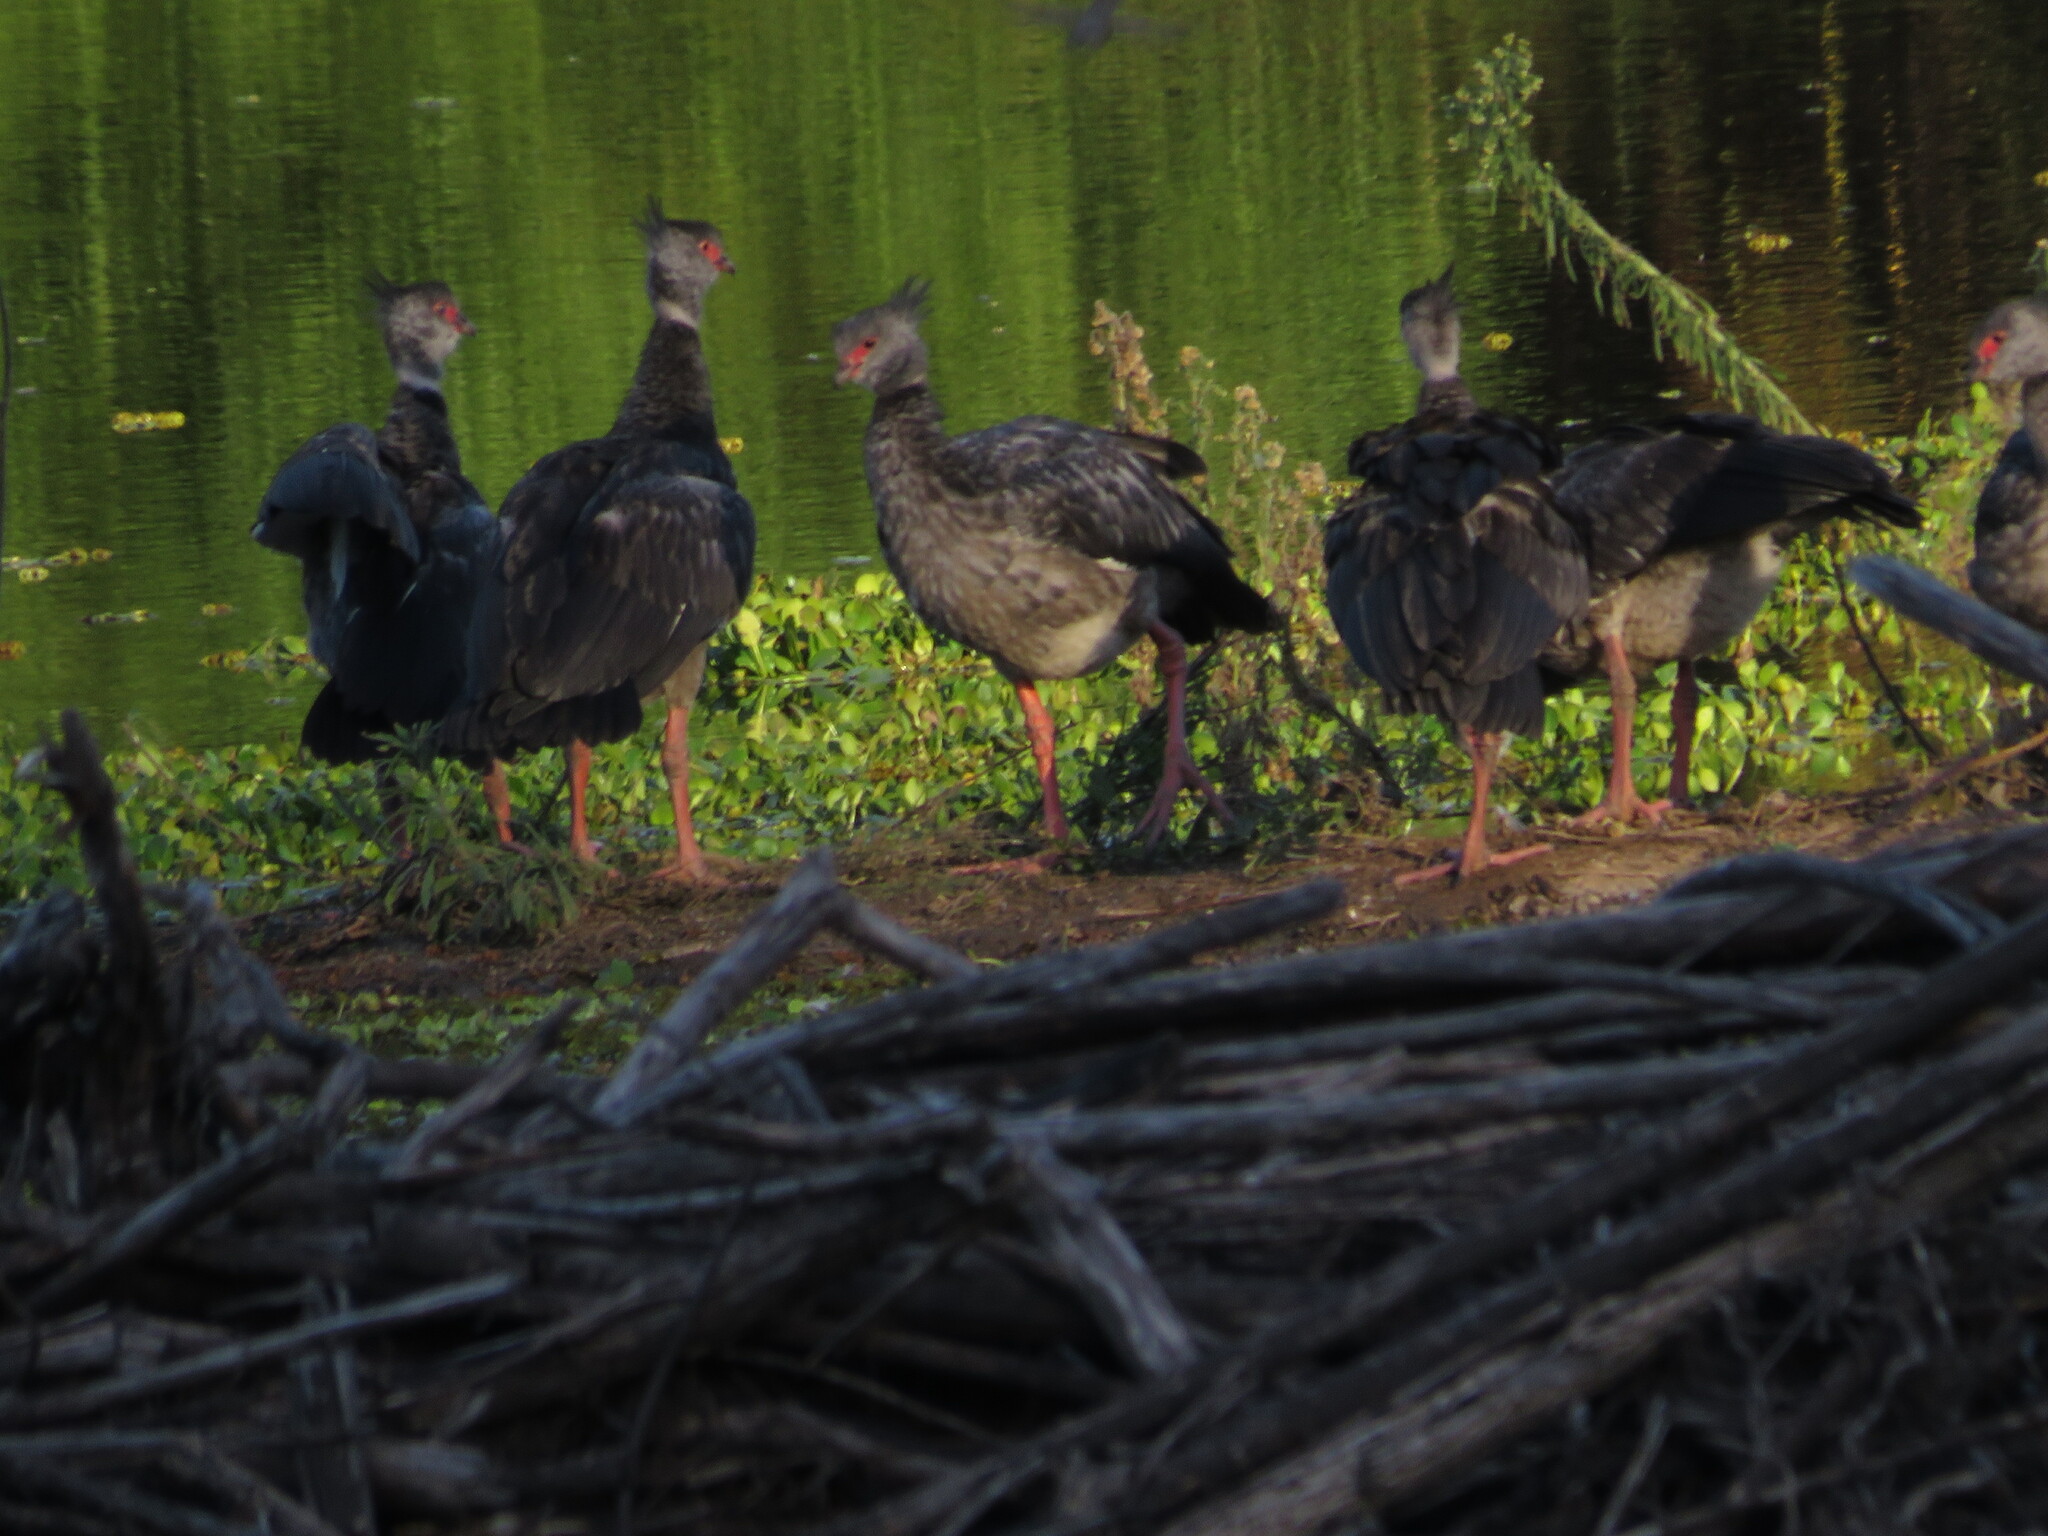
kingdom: Animalia
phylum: Chordata
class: Aves
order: Anseriformes
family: Anhimidae
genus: Chauna
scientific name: Chauna torquata
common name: Southern screamer
